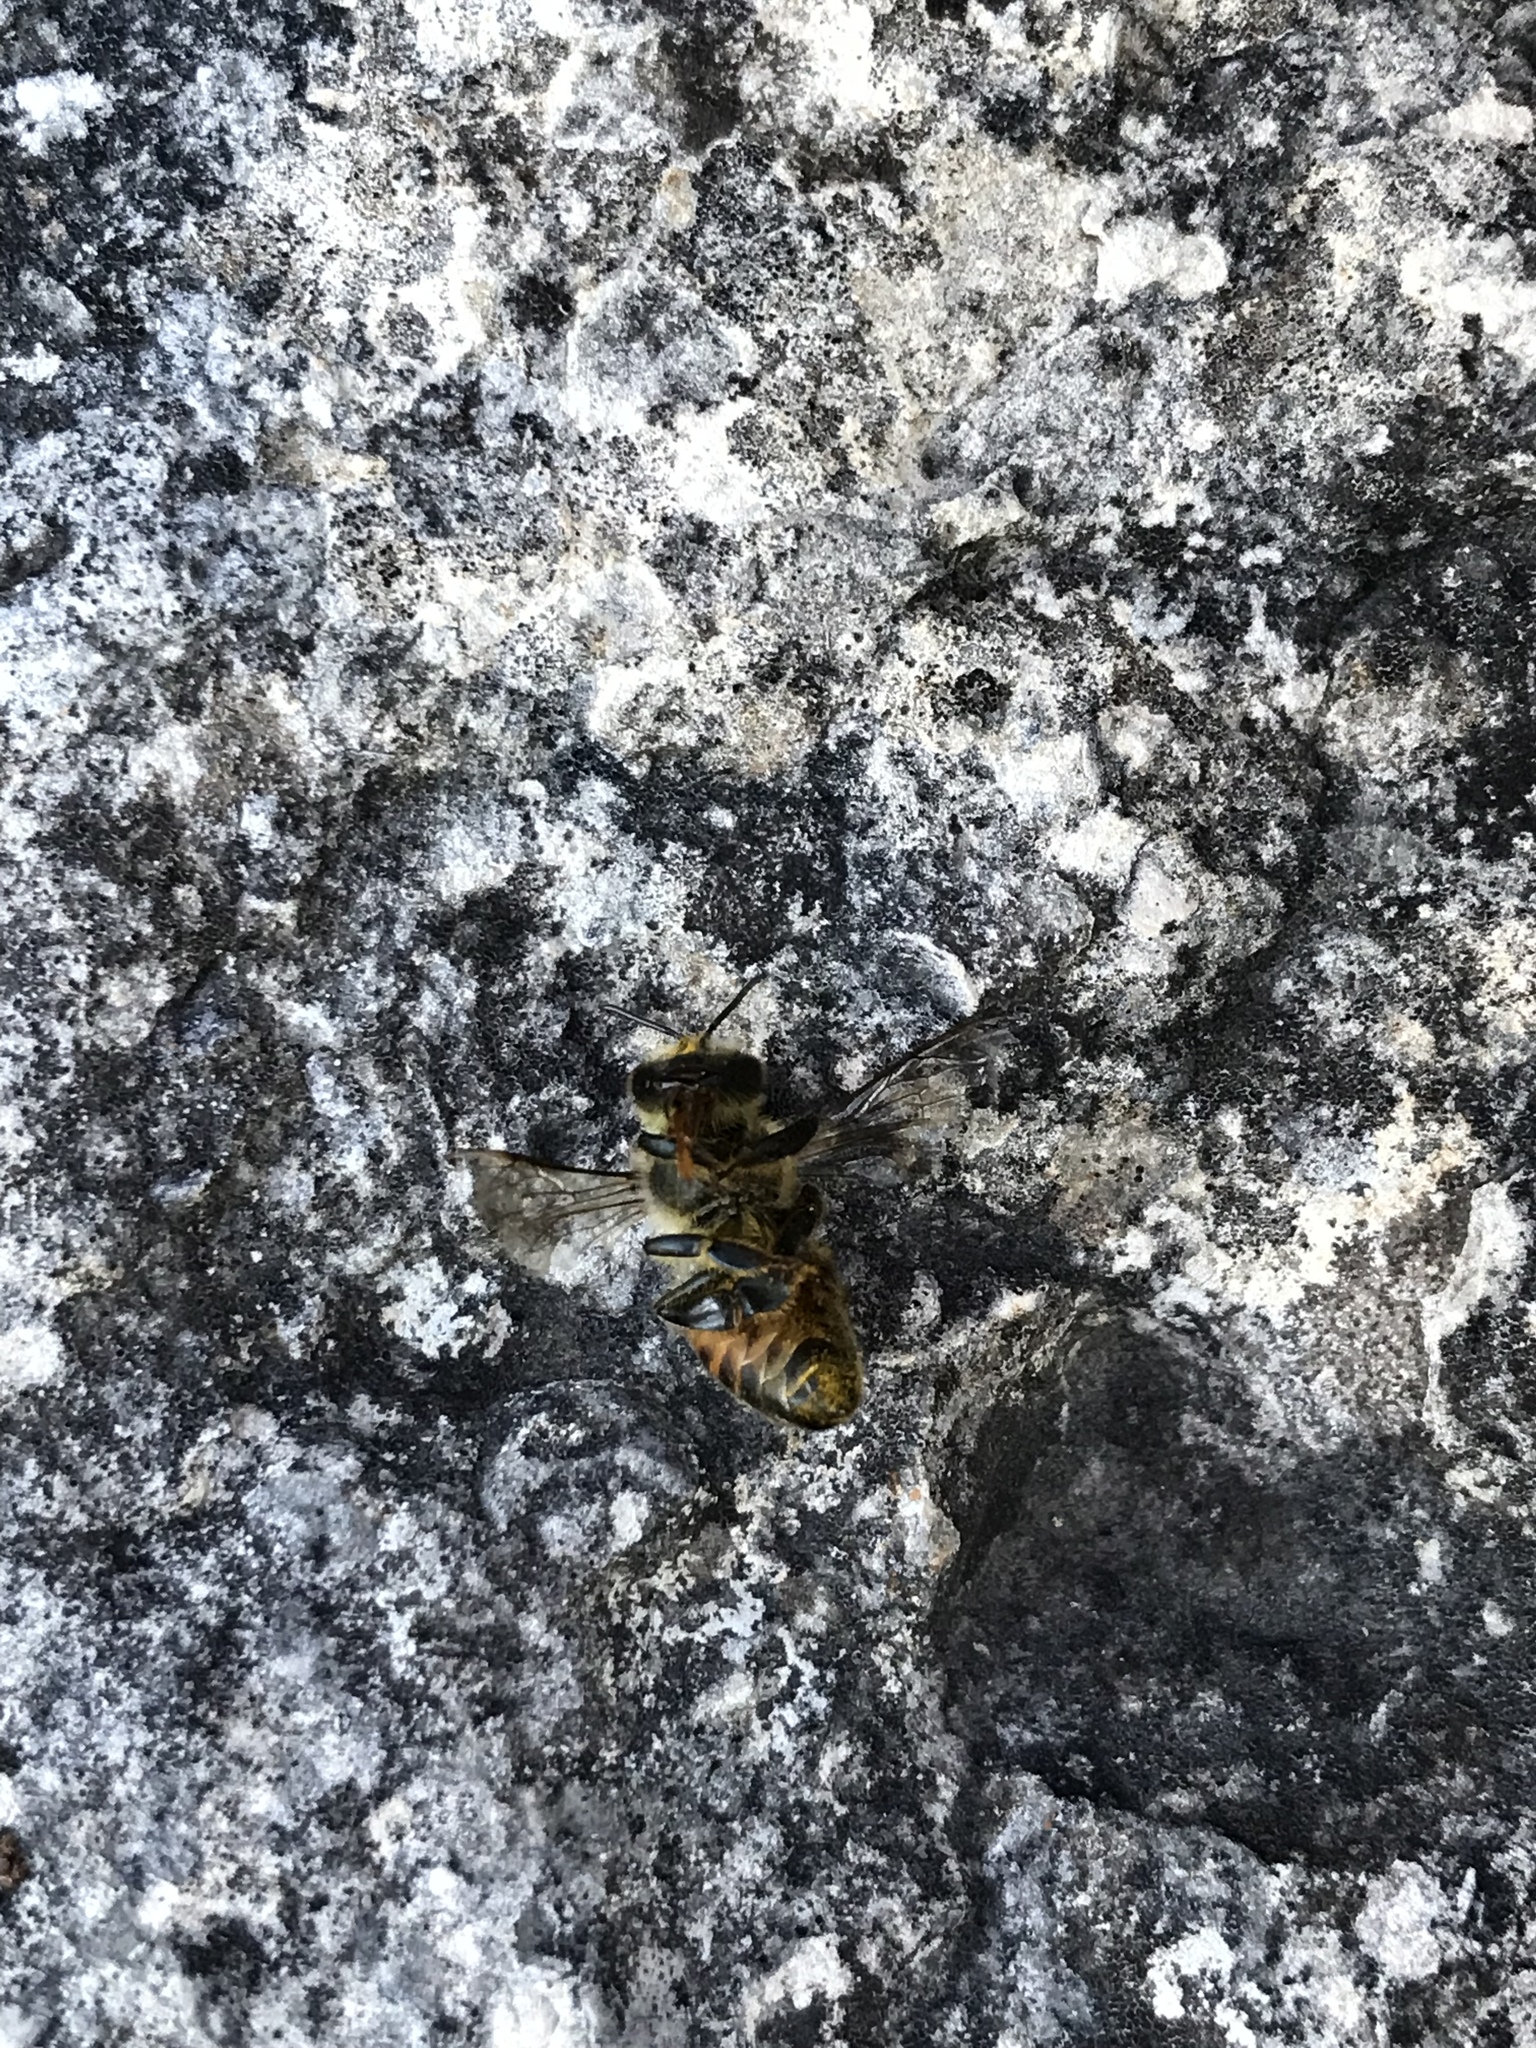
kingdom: Animalia
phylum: Arthropoda
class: Insecta
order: Hymenoptera
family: Apidae
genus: Apis
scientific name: Apis mellifera
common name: Honey bee
